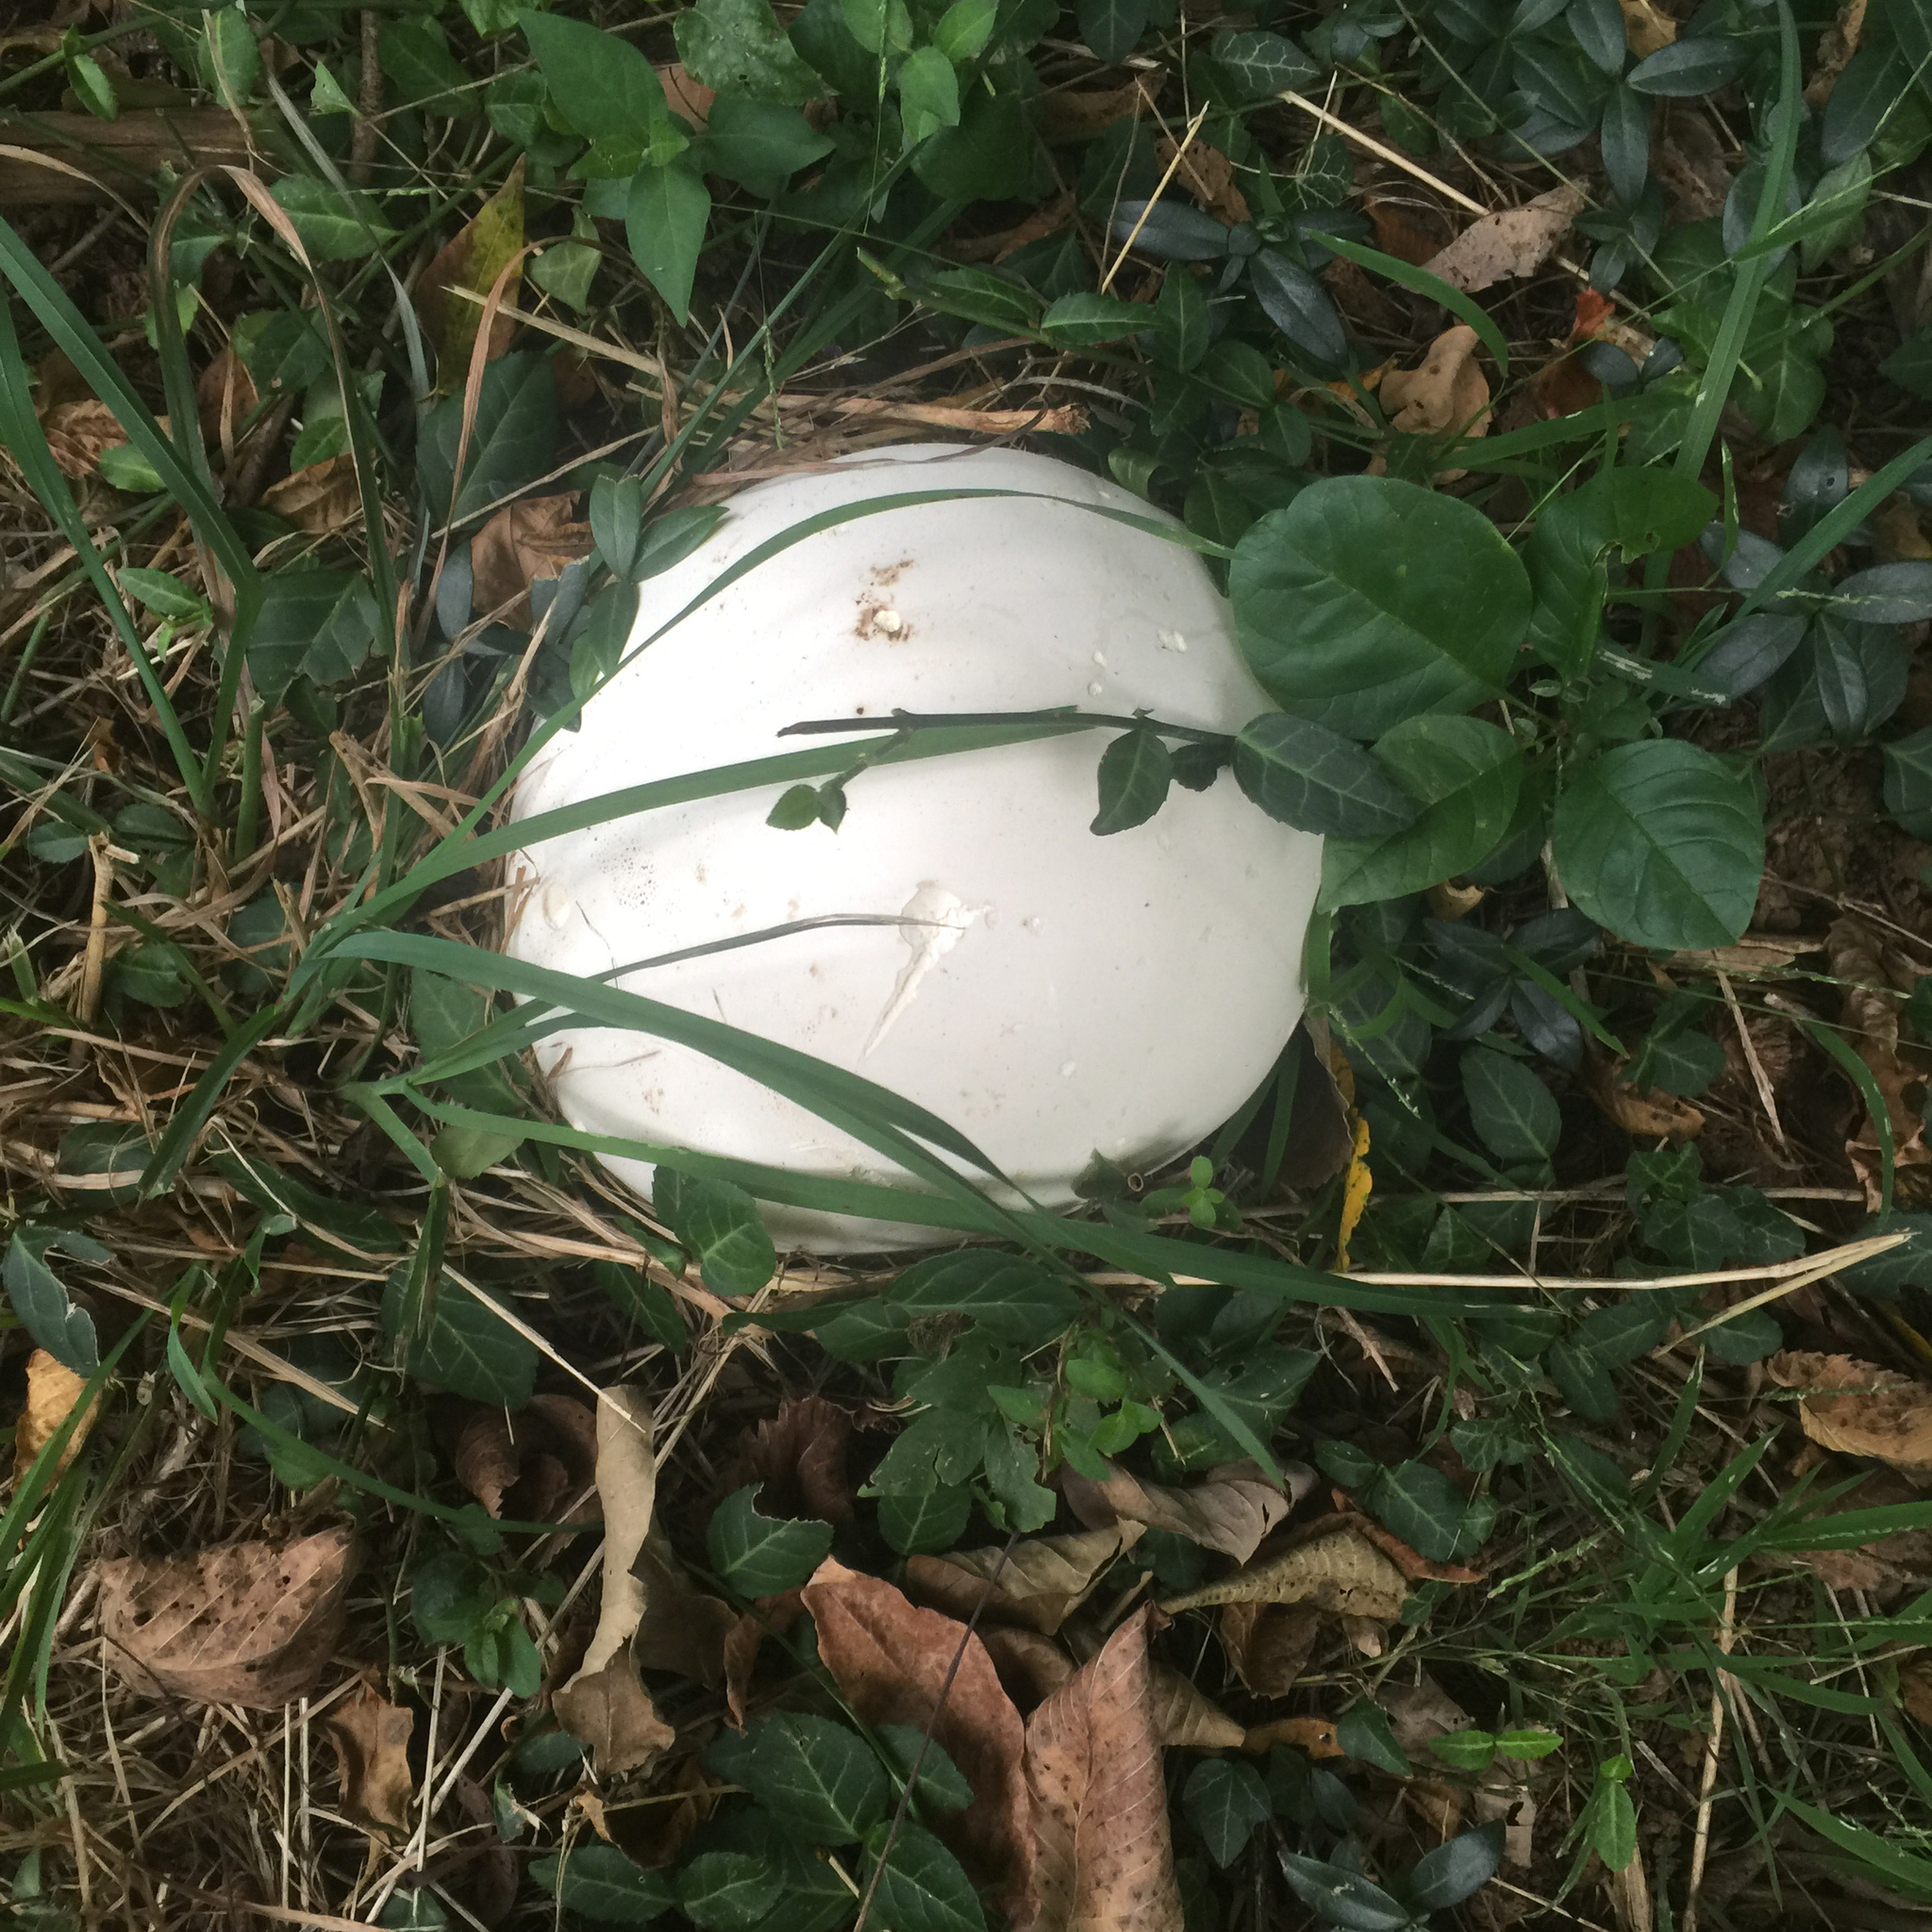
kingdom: Fungi
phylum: Basidiomycota
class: Agaricomycetes
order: Agaricales
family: Lycoperdaceae
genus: Calvatia
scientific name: Calvatia gigantea
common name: Giant puffball
